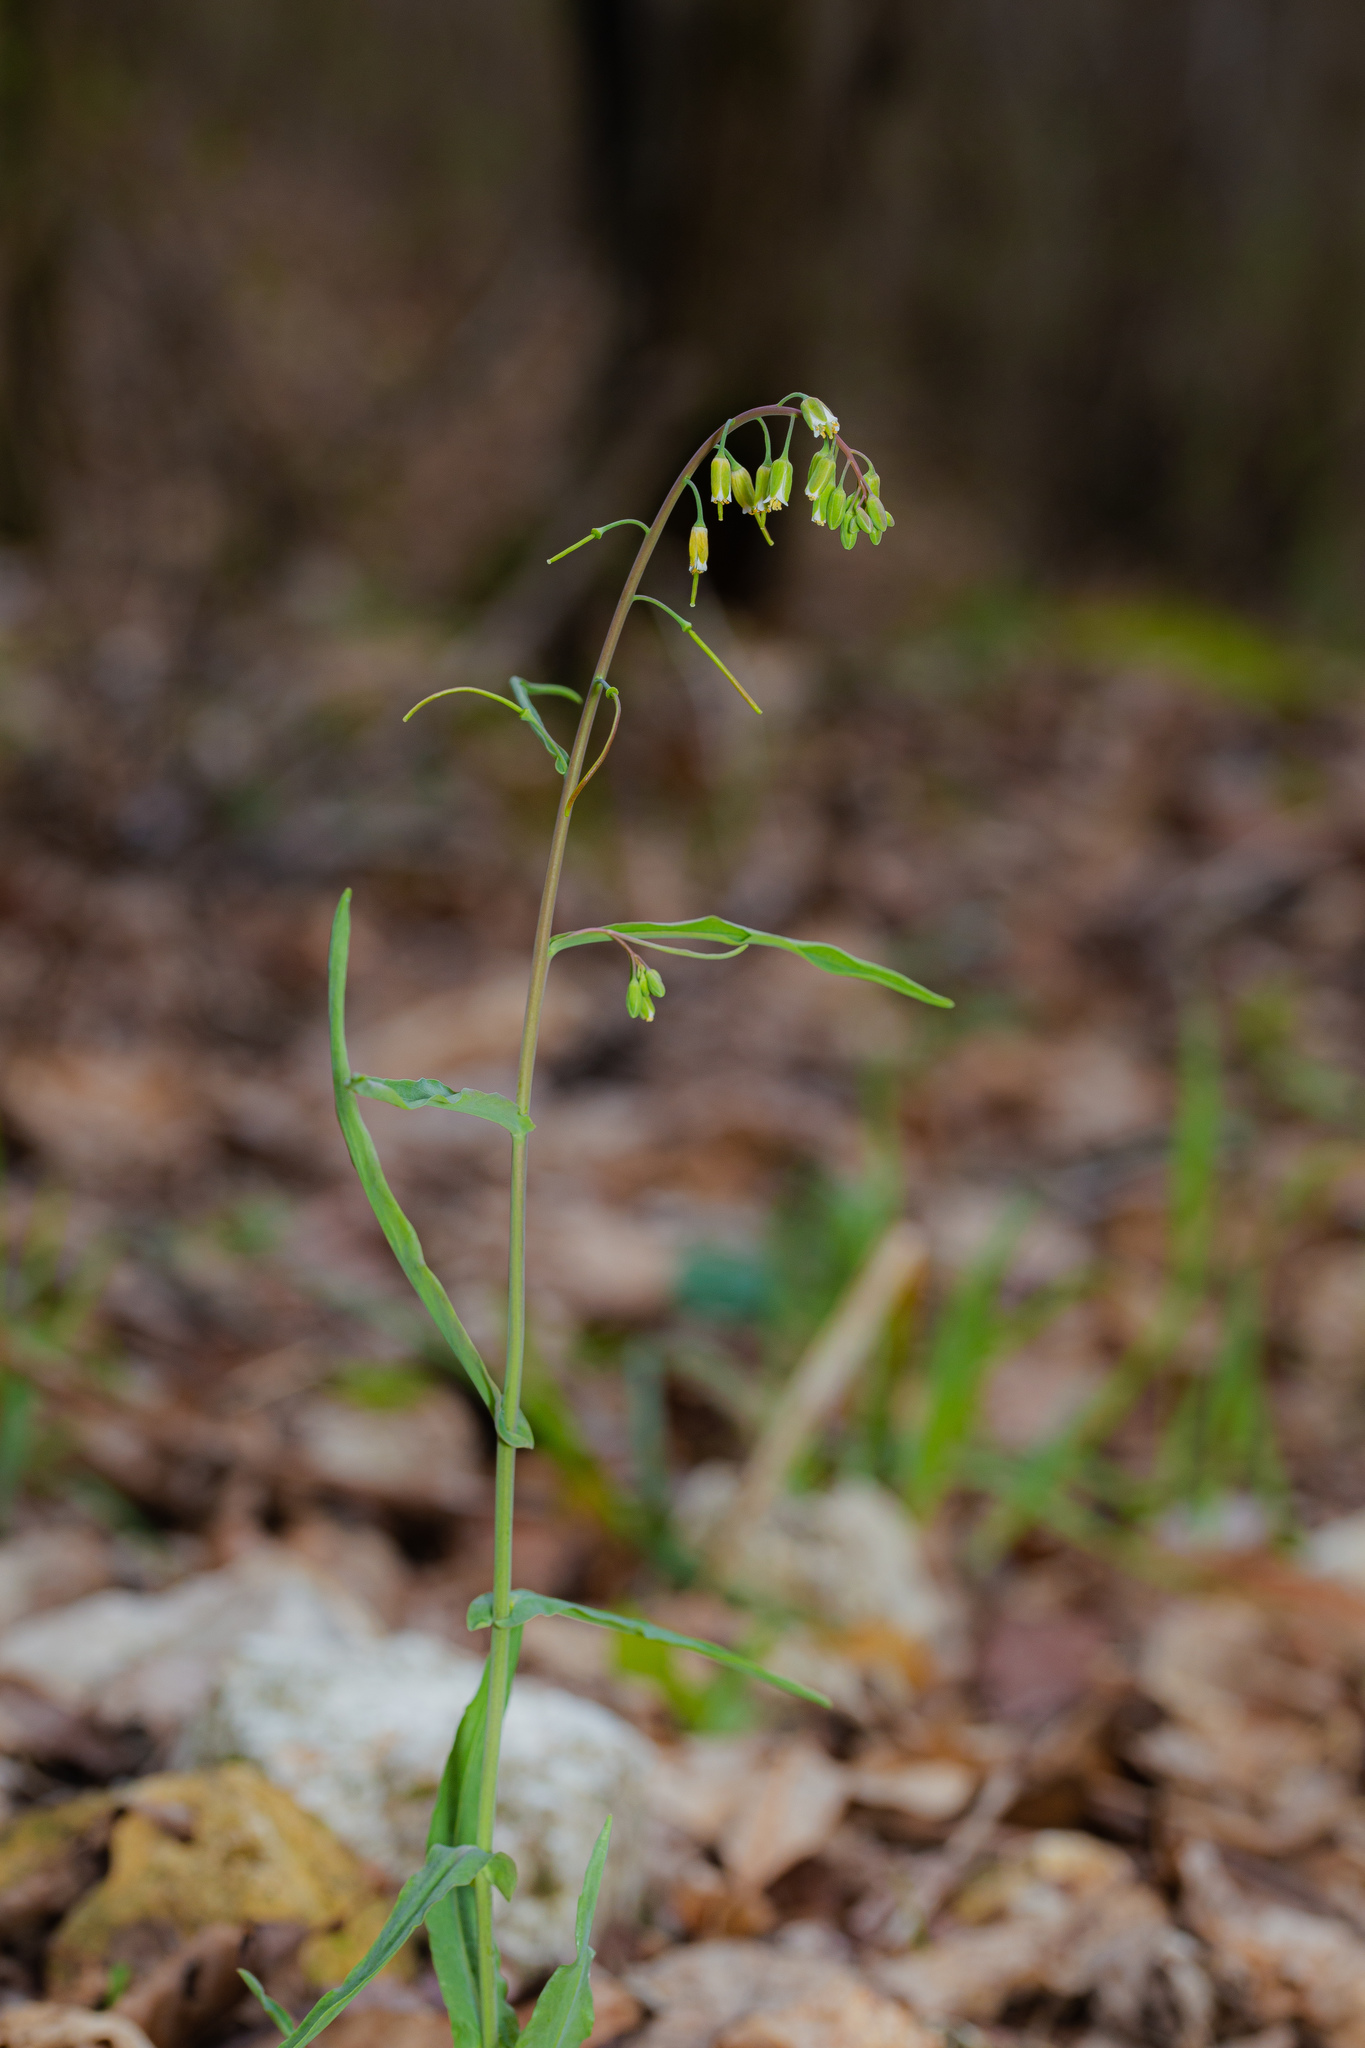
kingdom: Plantae
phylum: Tracheophyta
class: Magnoliopsida
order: Brassicales
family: Brassicaceae
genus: Borodinia
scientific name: Borodinia laevigata
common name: Smooth rockcress
